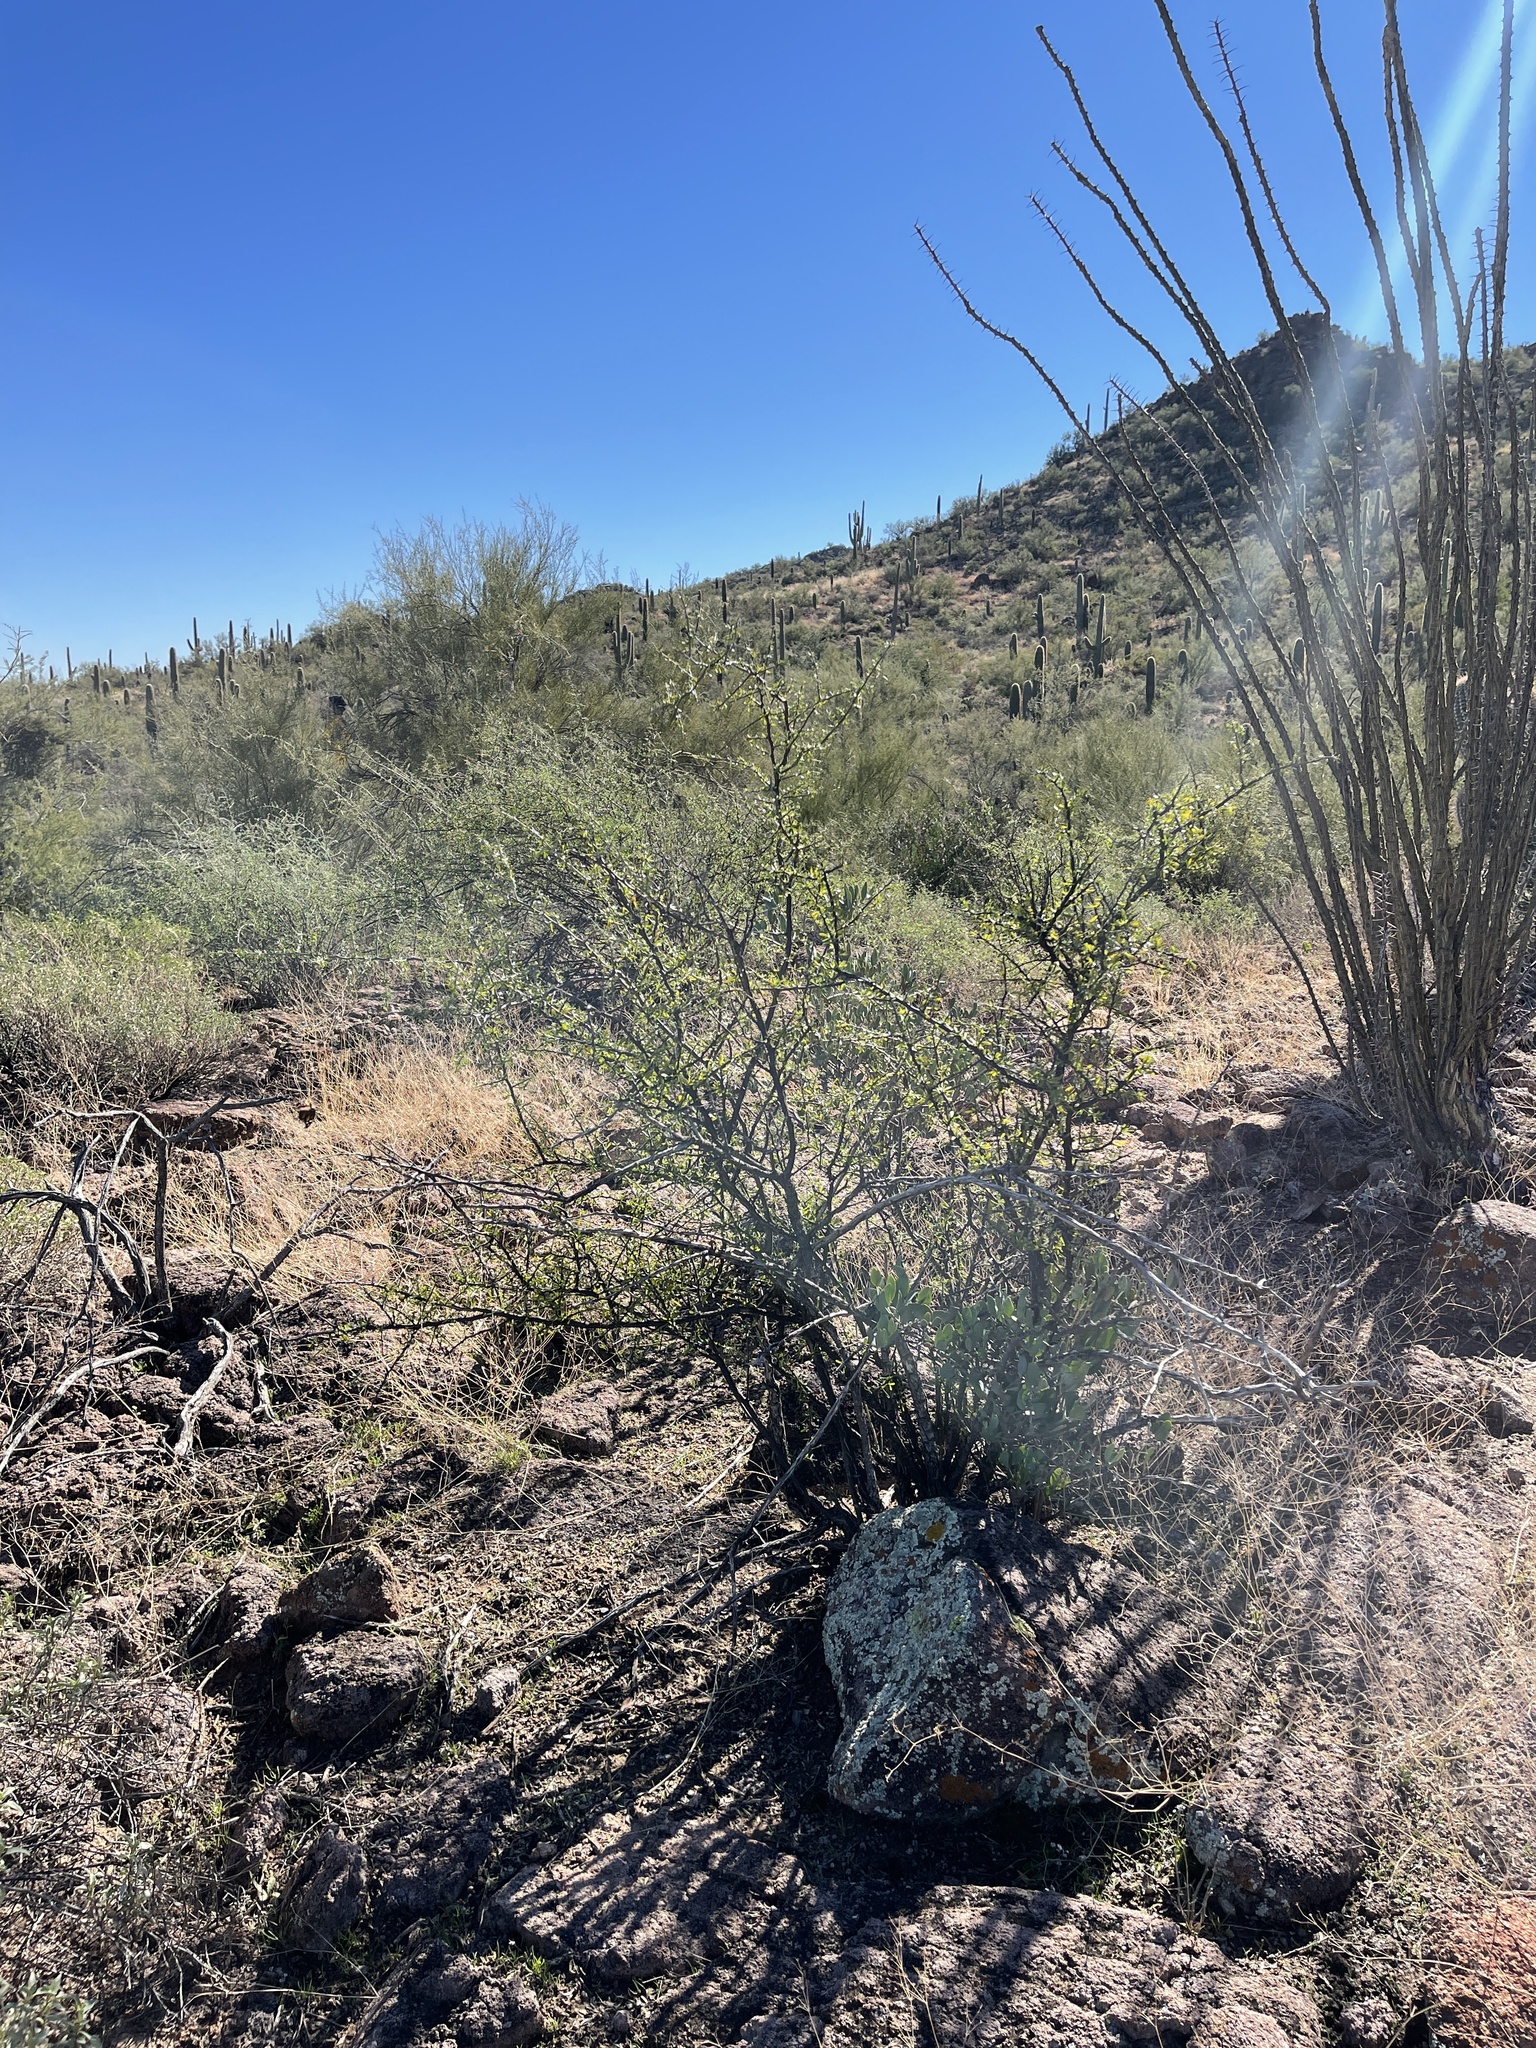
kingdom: Plantae
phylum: Tracheophyta
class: Magnoliopsida
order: Solanales
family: Solanaceae
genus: Lycium
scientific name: Lycium berlandieri
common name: Berlandier wolfberry
